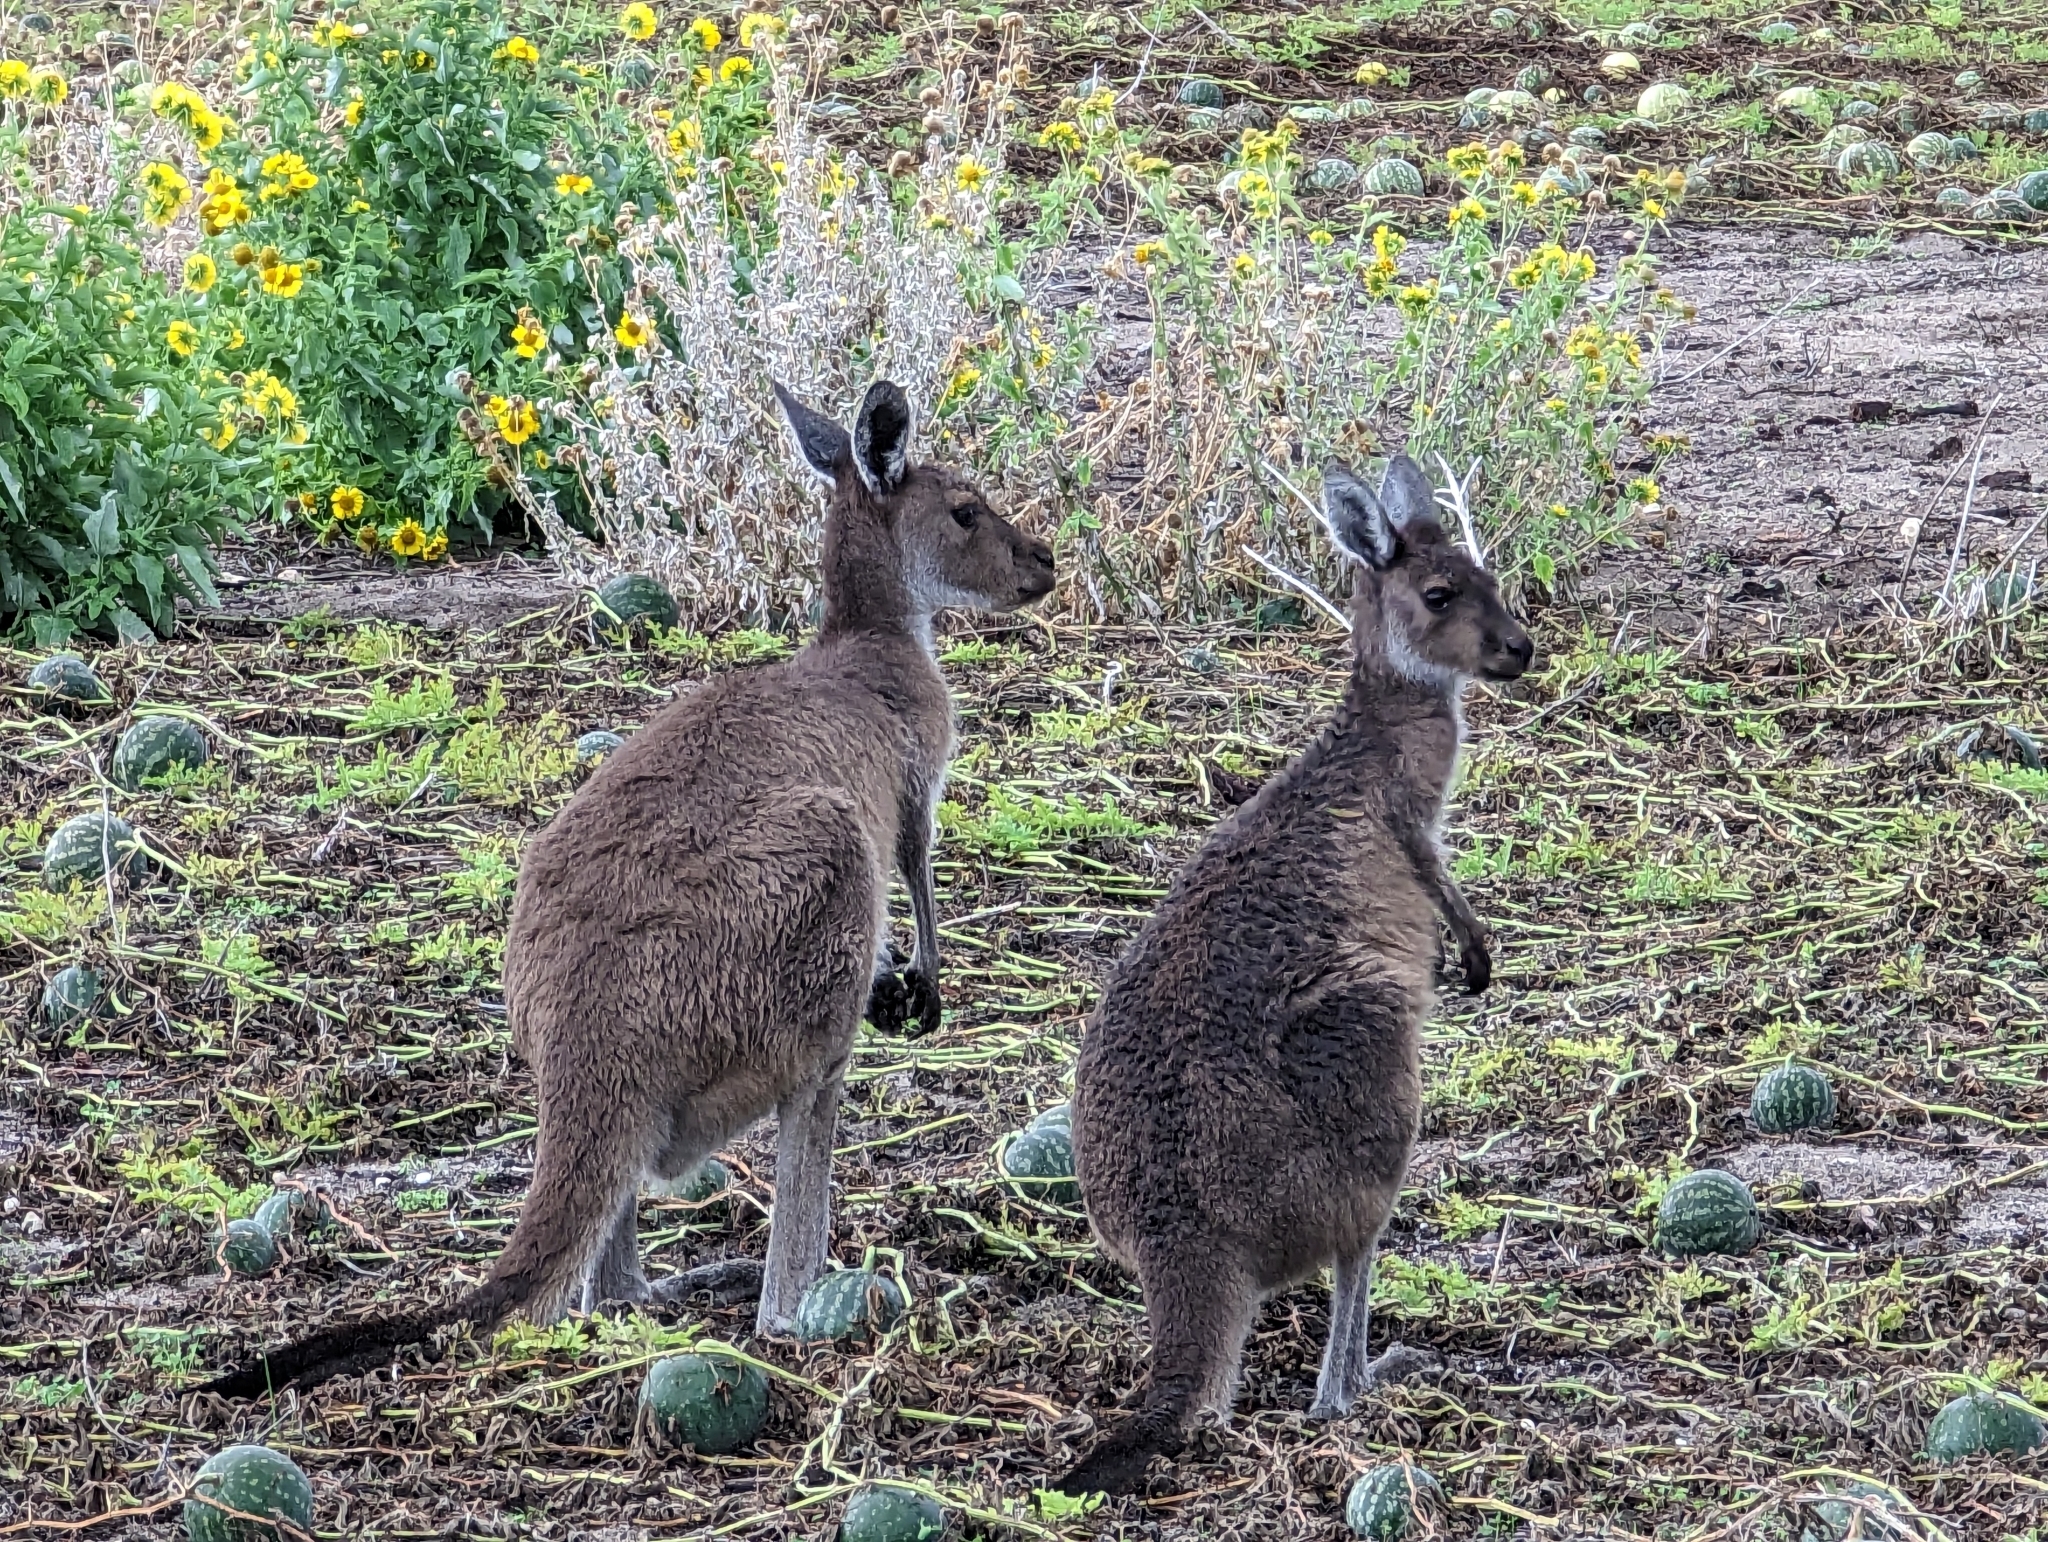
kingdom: Animalia
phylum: Chordata
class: Mammalia
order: Diprotodontia
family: Macropodidae
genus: Macropus
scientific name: Macropus fuliginosus
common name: Western grey kangaroo
